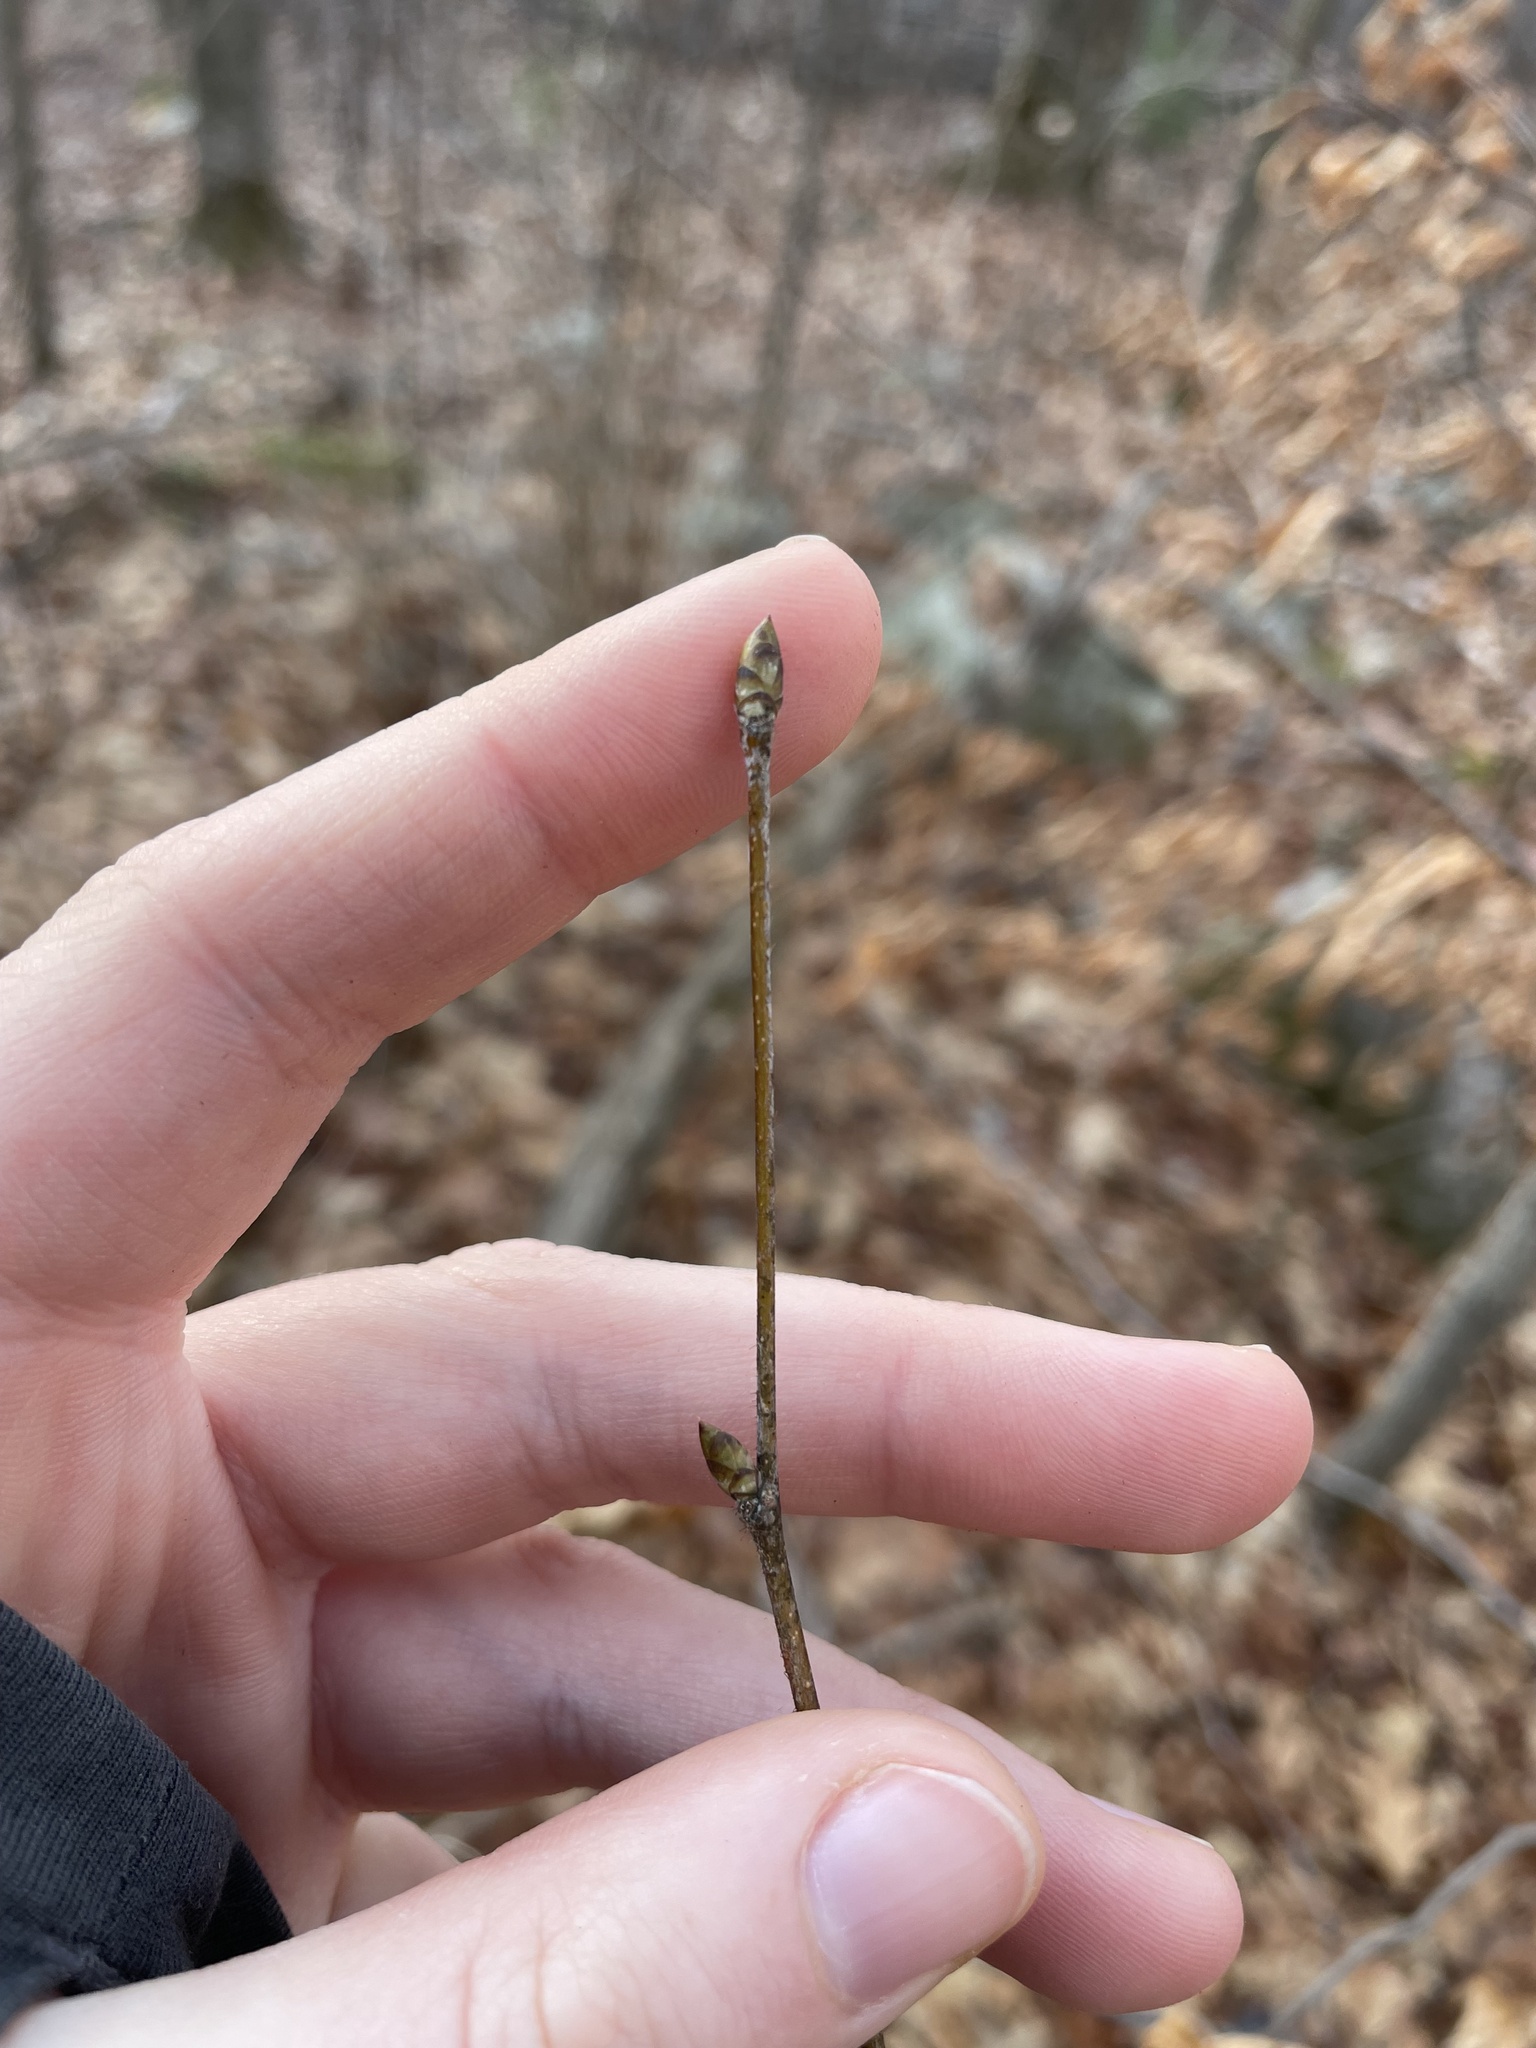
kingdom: Plantae
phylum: Tracheophyta
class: Magnoliopsida
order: Fagales
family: Betulaceae
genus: Ostrya
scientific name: Ostrya virginiana
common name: Ironwood
